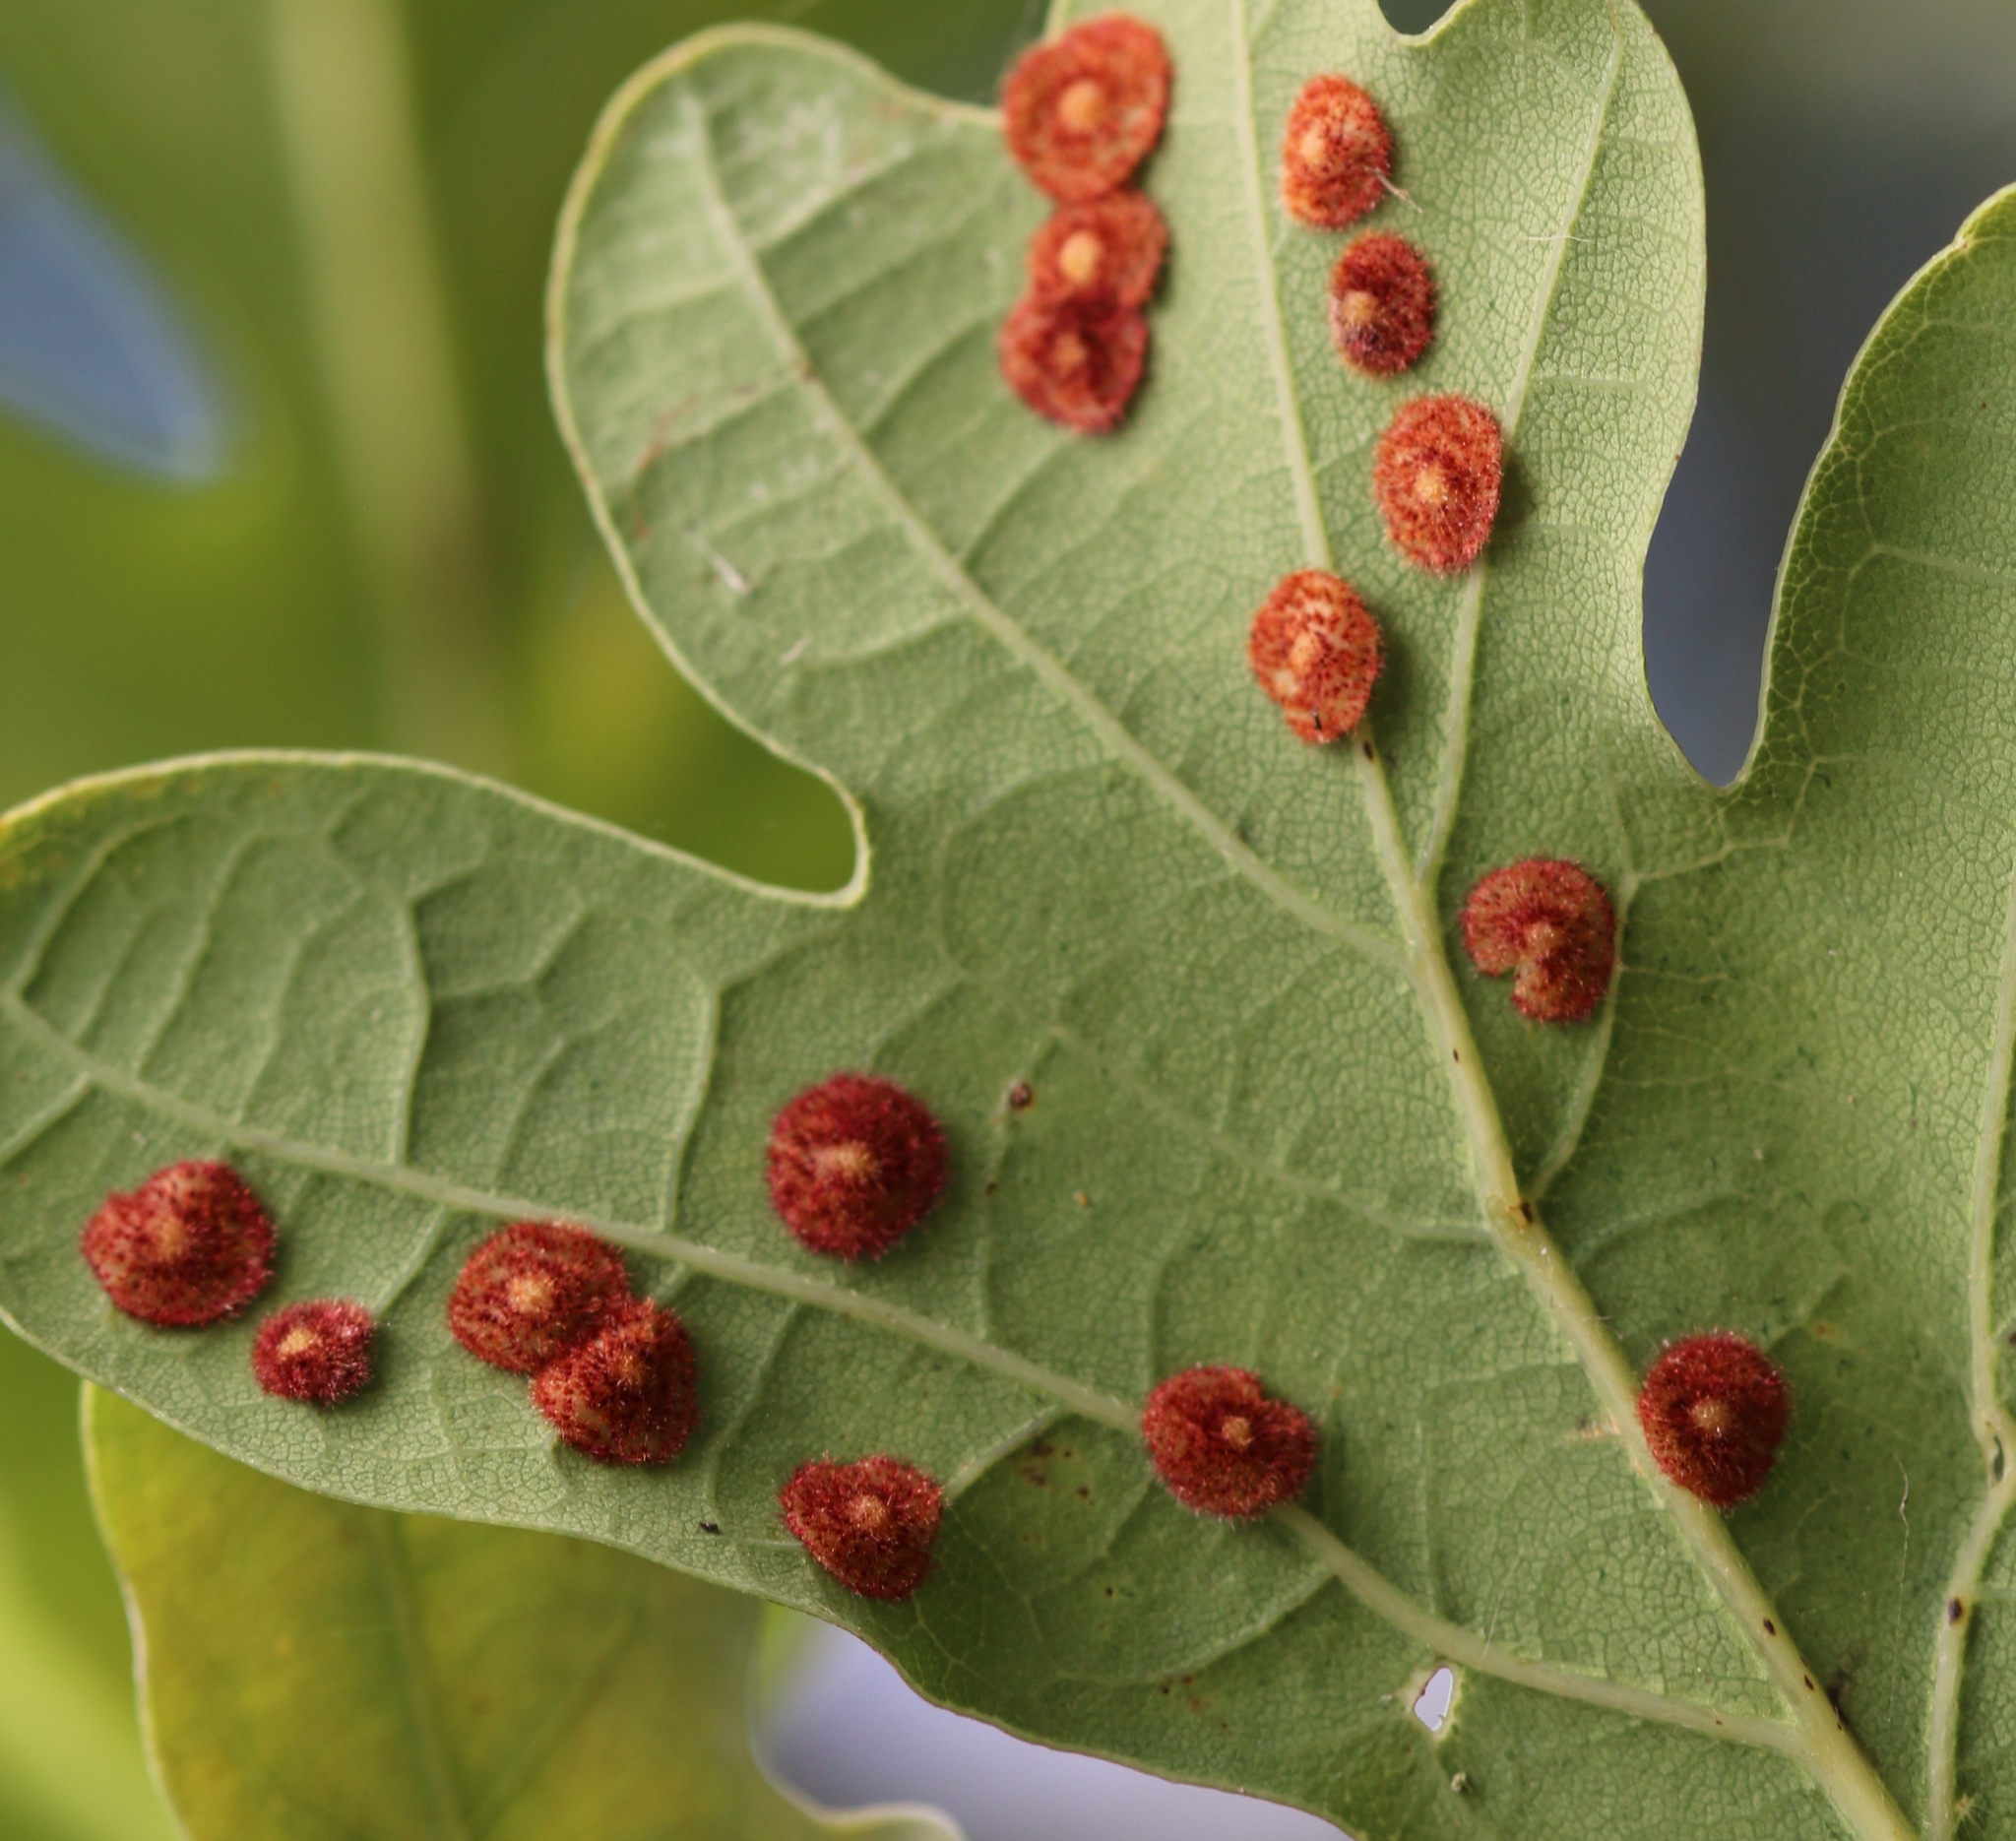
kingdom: Animalia
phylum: Arthropoda
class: Insecta
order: Hymenoptera
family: Cynipidae
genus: Neuroterus
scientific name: Neuroterus quercusbaccarum
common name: Common spangle gall
